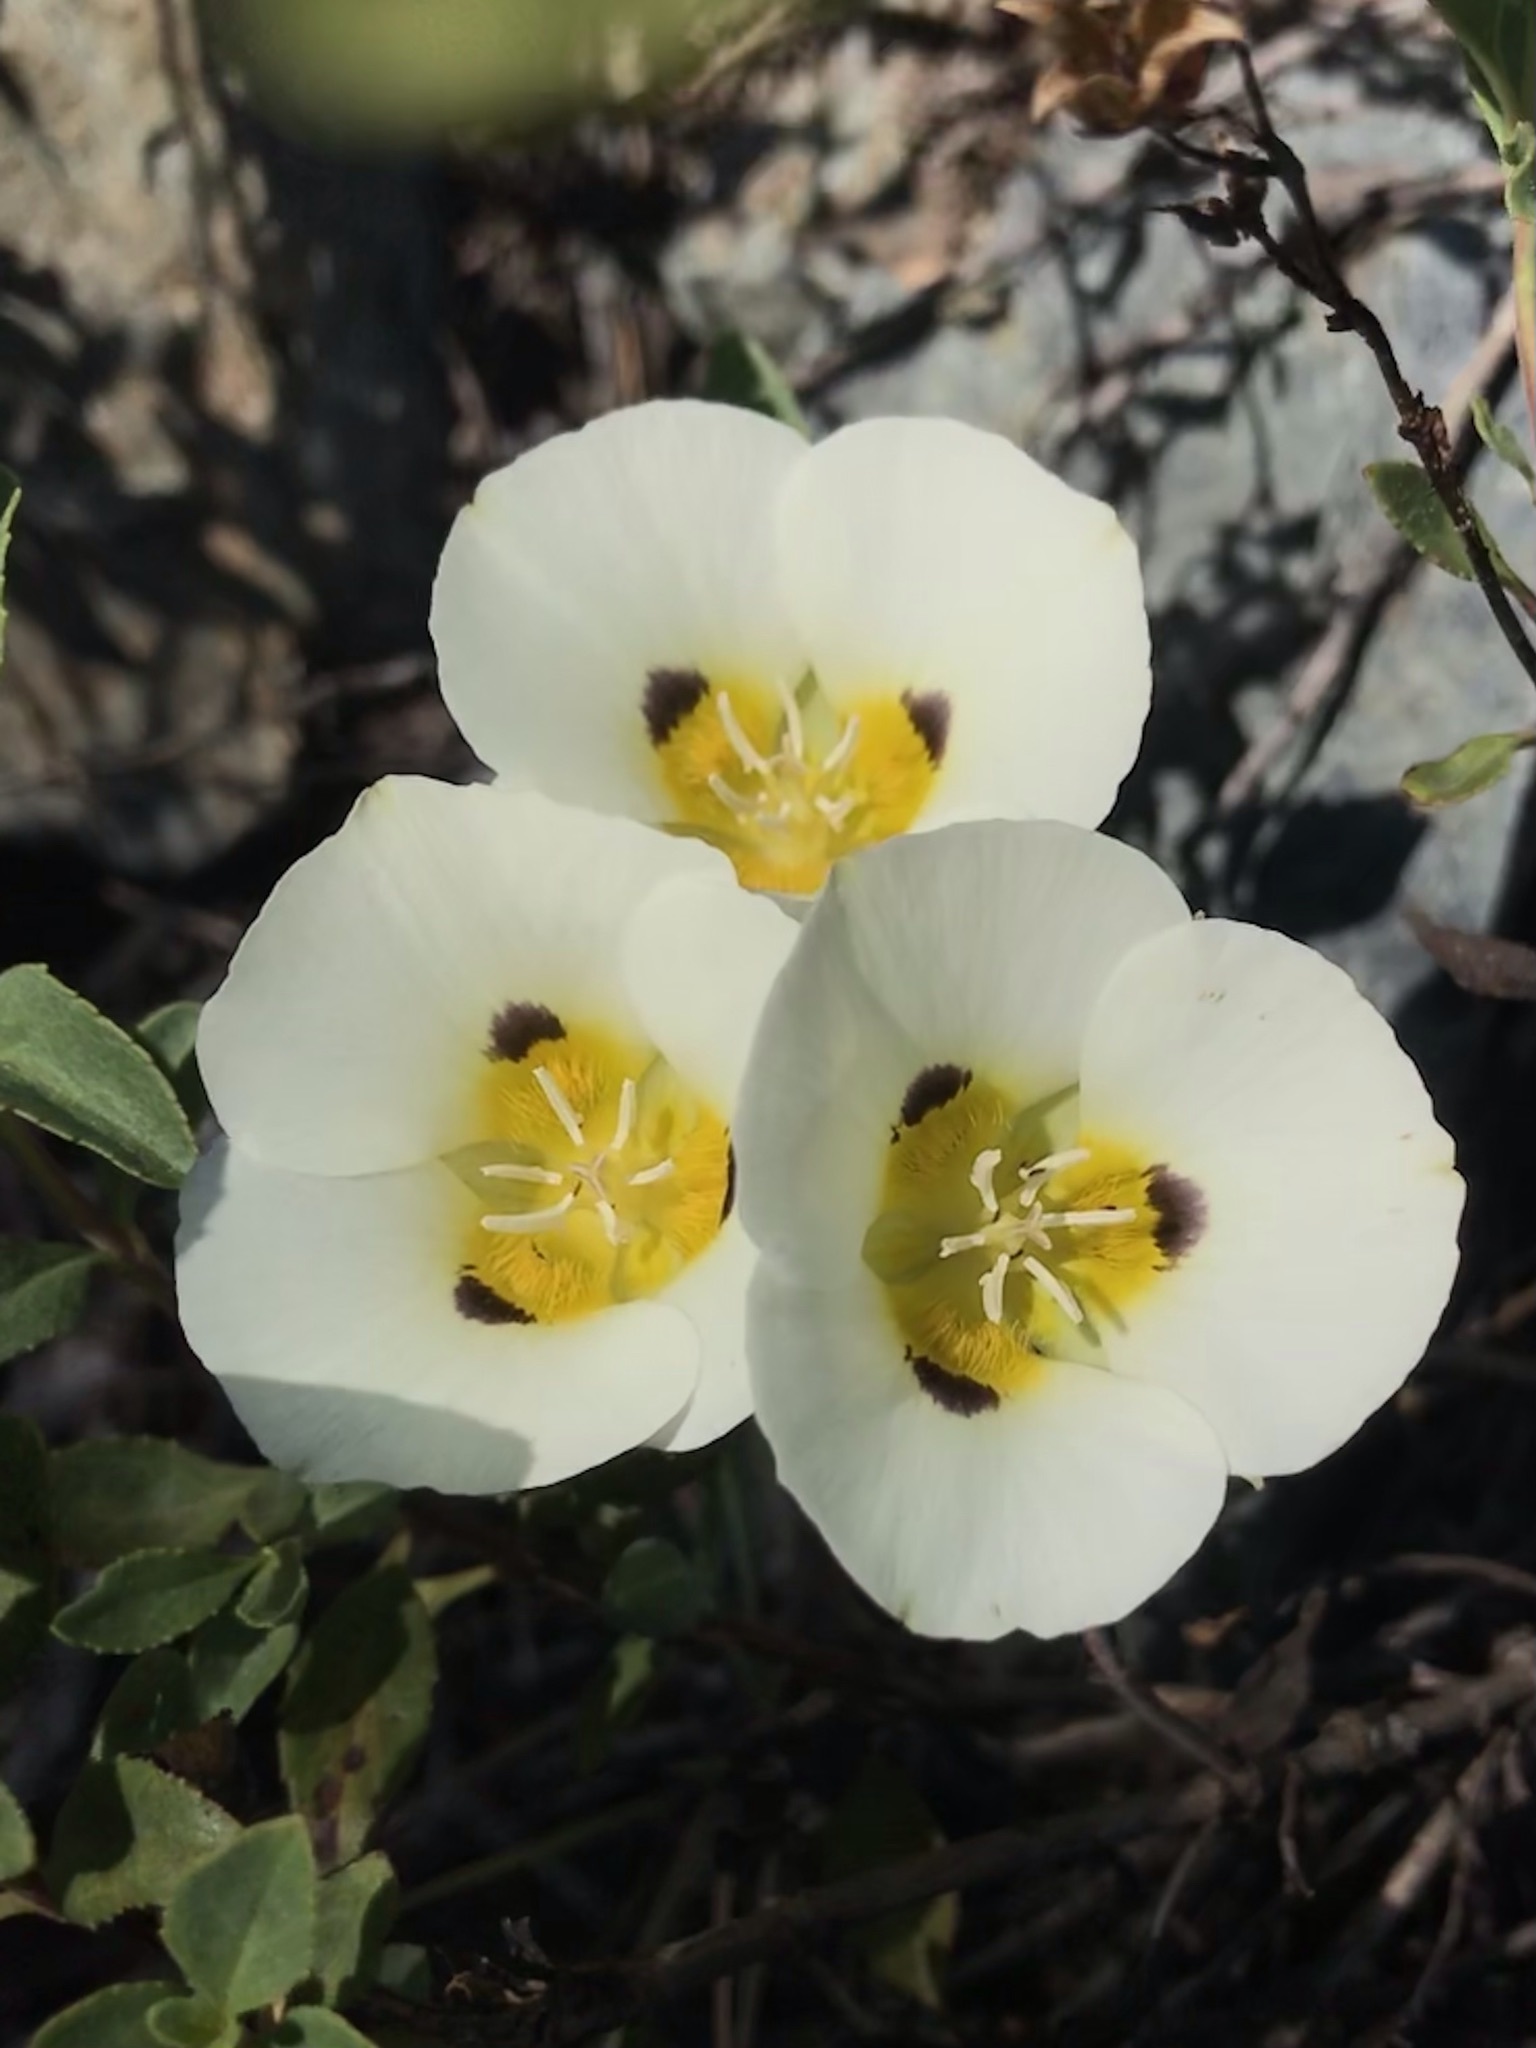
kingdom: Plantae
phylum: Tracheophyta
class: Liliopsida
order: Liliales
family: Liliaceae
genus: Calochortus
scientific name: Calochortus leichtlinii
